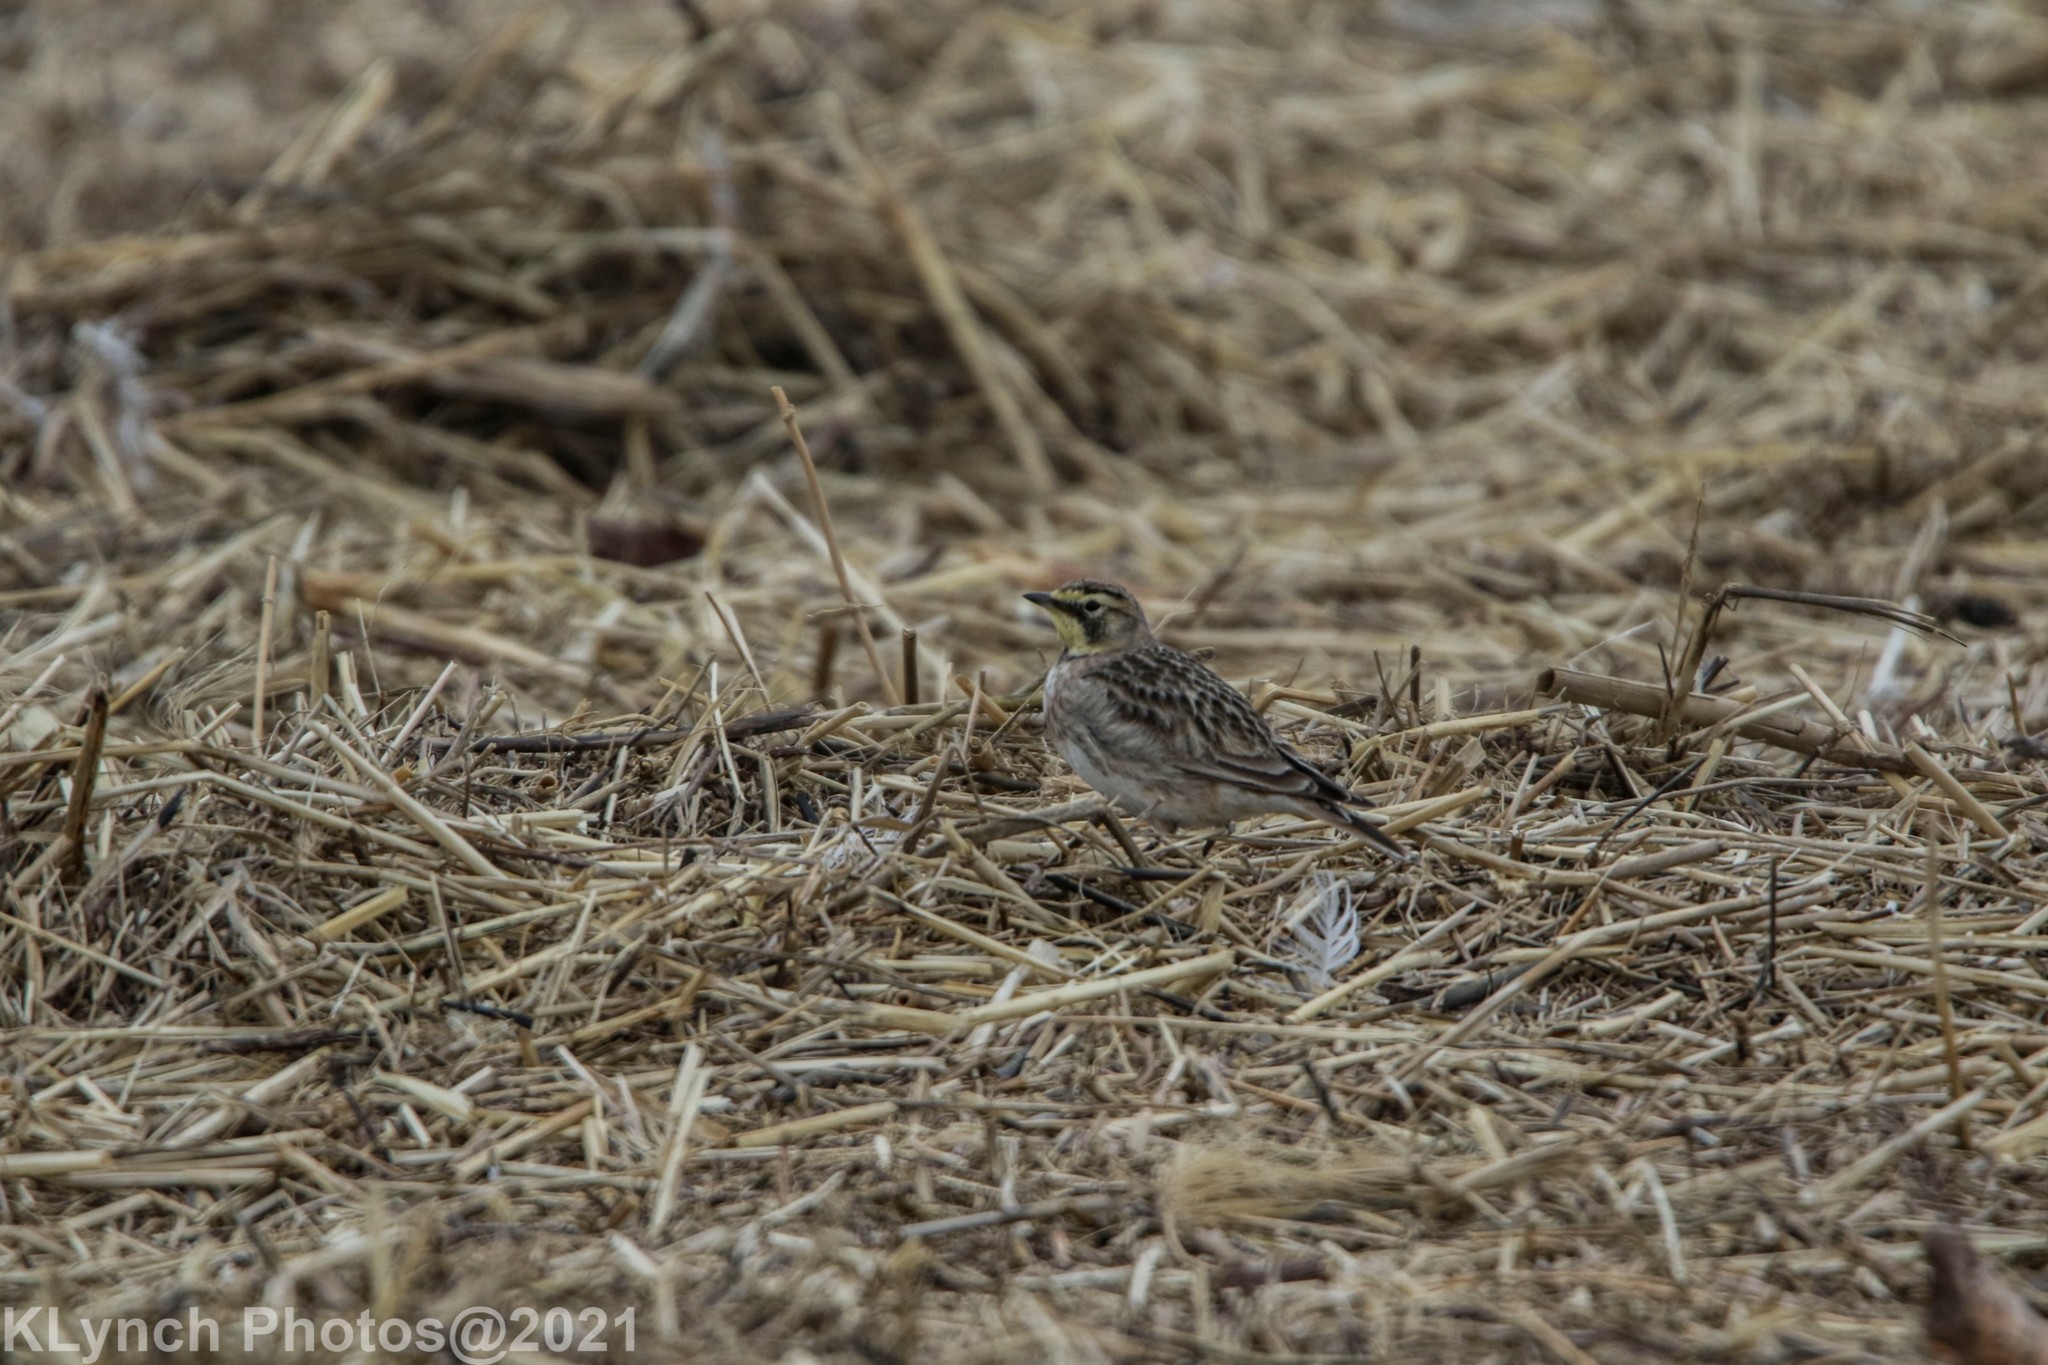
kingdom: Animalia
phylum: Chordata
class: Aves
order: Passeriformes
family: Alaudidae
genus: Eremophila
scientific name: Eremophila alpestris
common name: Horned lark
